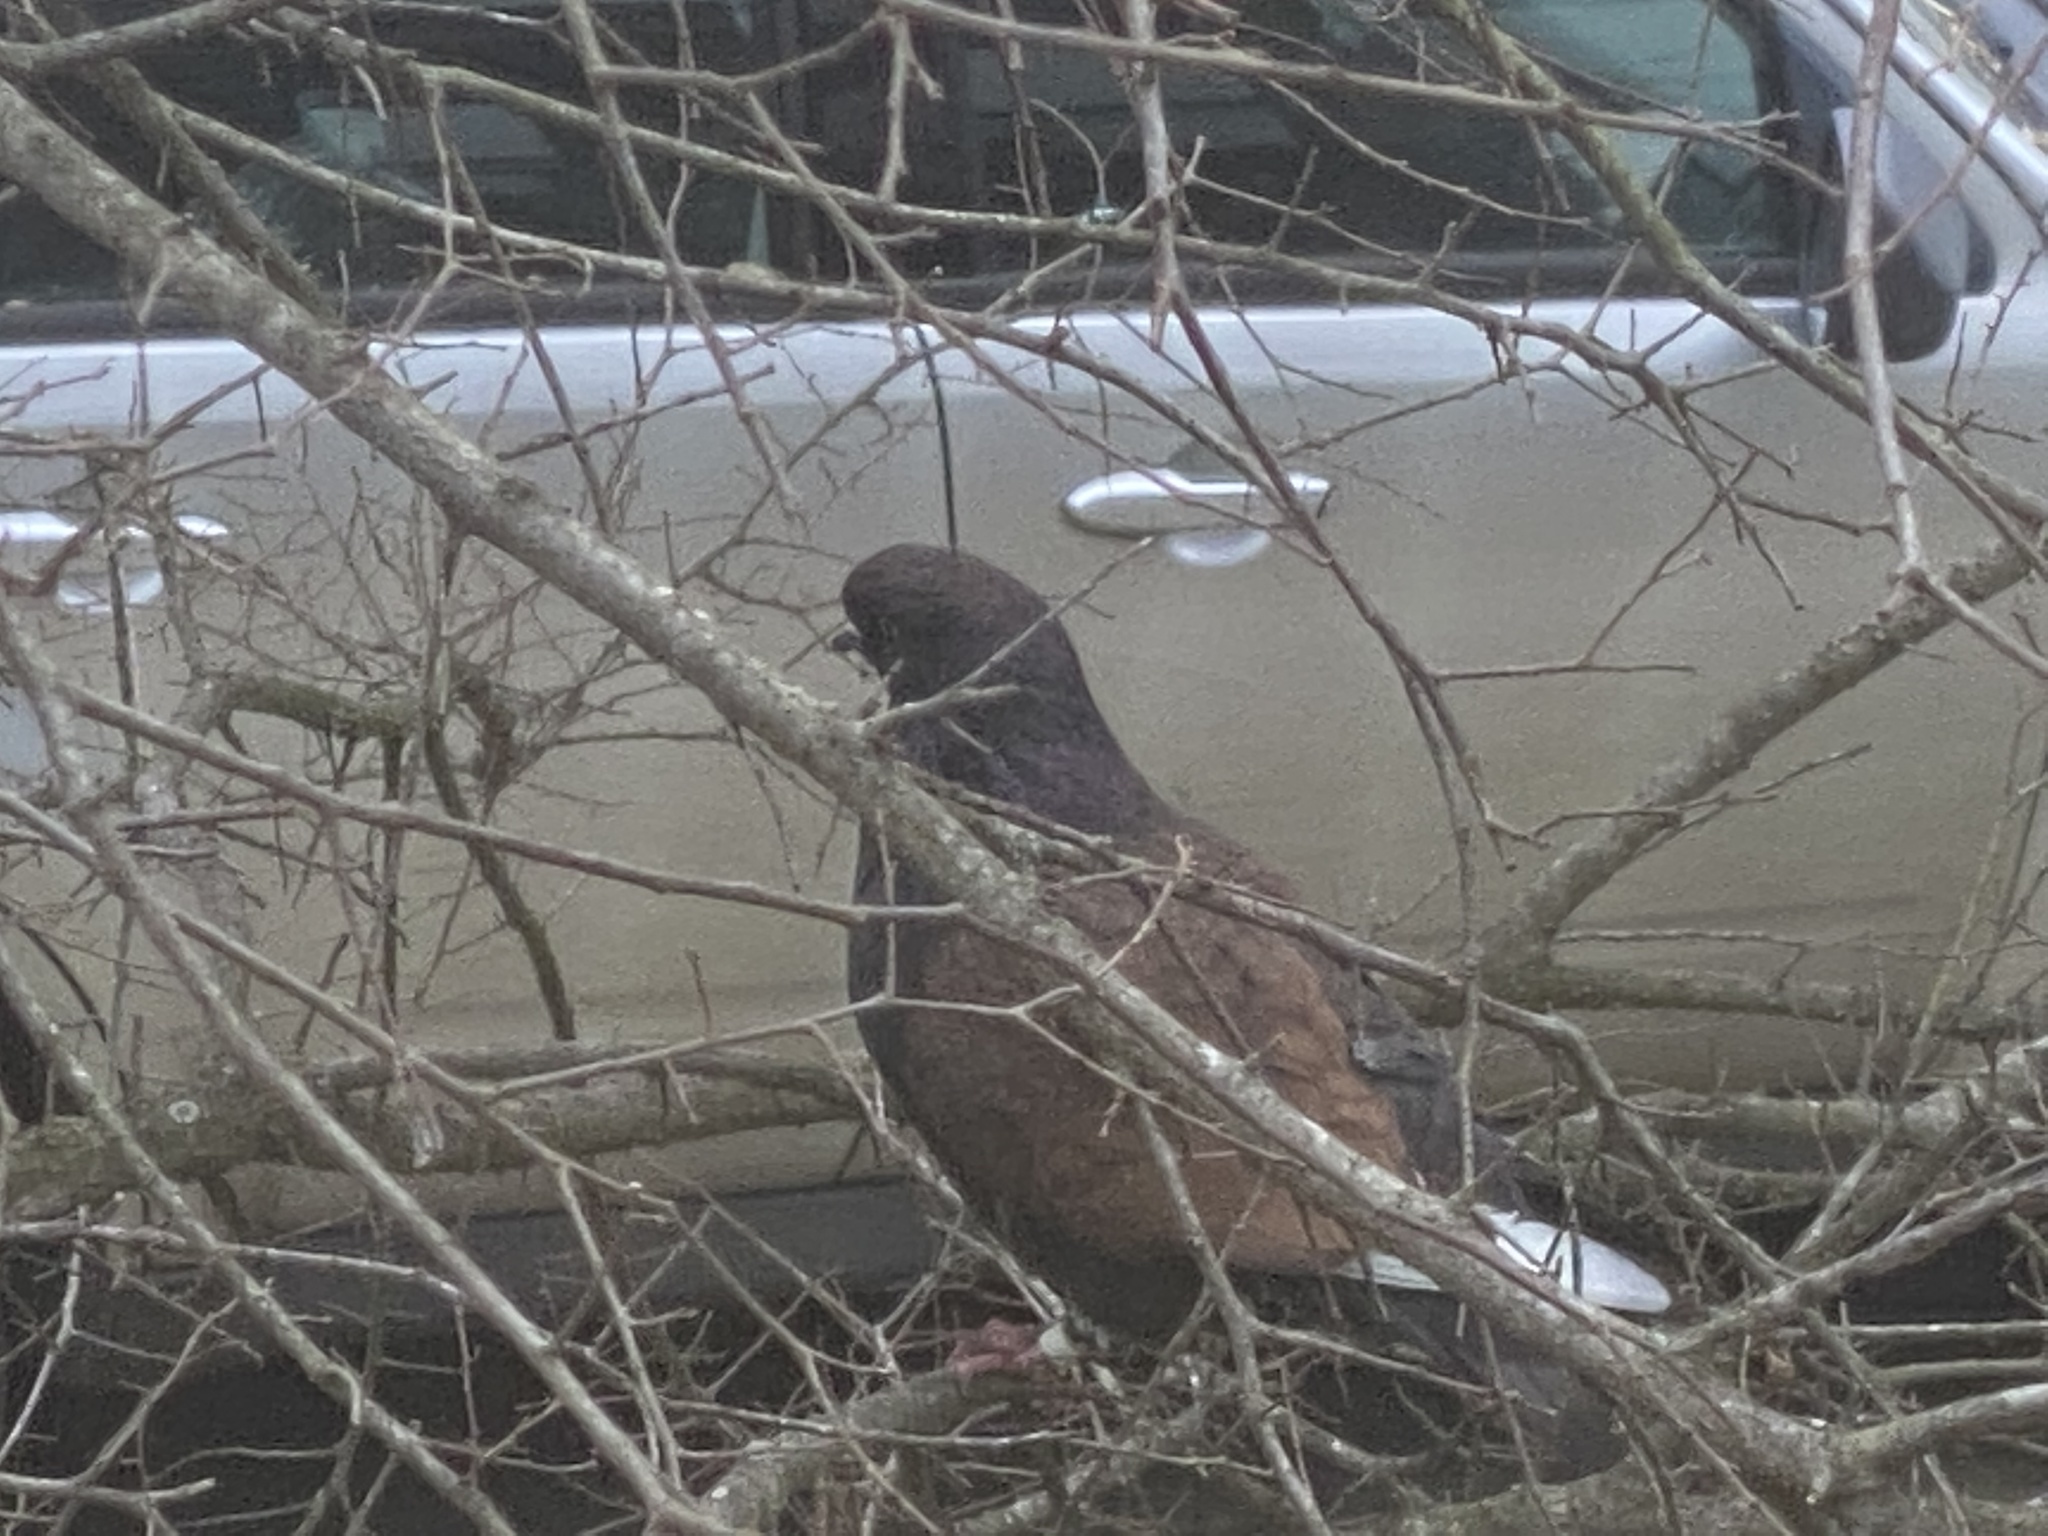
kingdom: Animalia
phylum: Chordata
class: Aves
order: Columbiformes
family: Columbidae
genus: Columba
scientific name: Columba livia
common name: Rock pigeon
